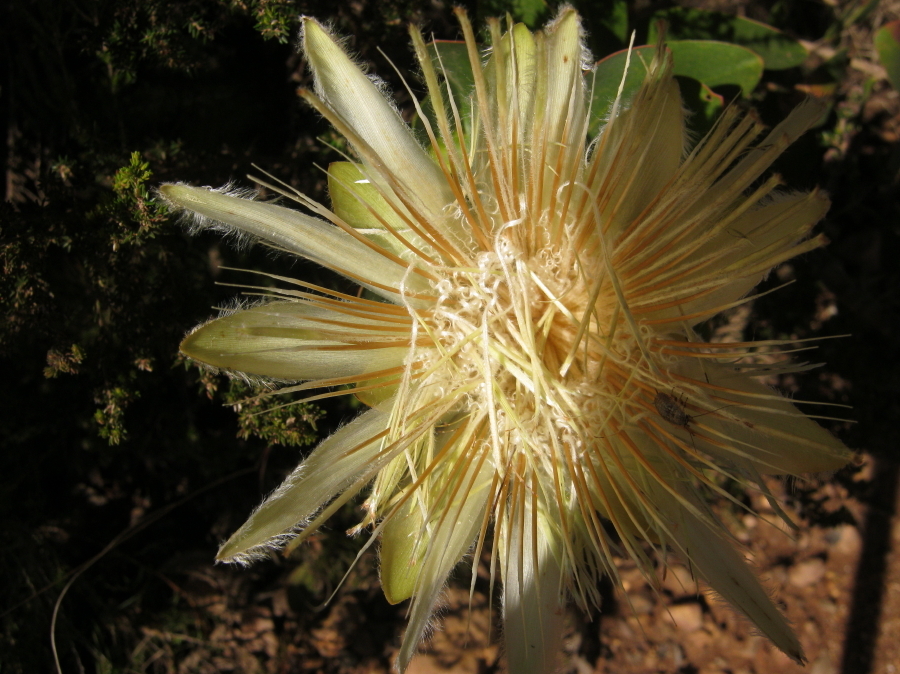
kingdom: Plantae
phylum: Tracheophyta
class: Magnoliopsida
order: Proteales
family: Proteaceae
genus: Protea
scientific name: Protea aurea
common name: Shuttlecock sugarbush
